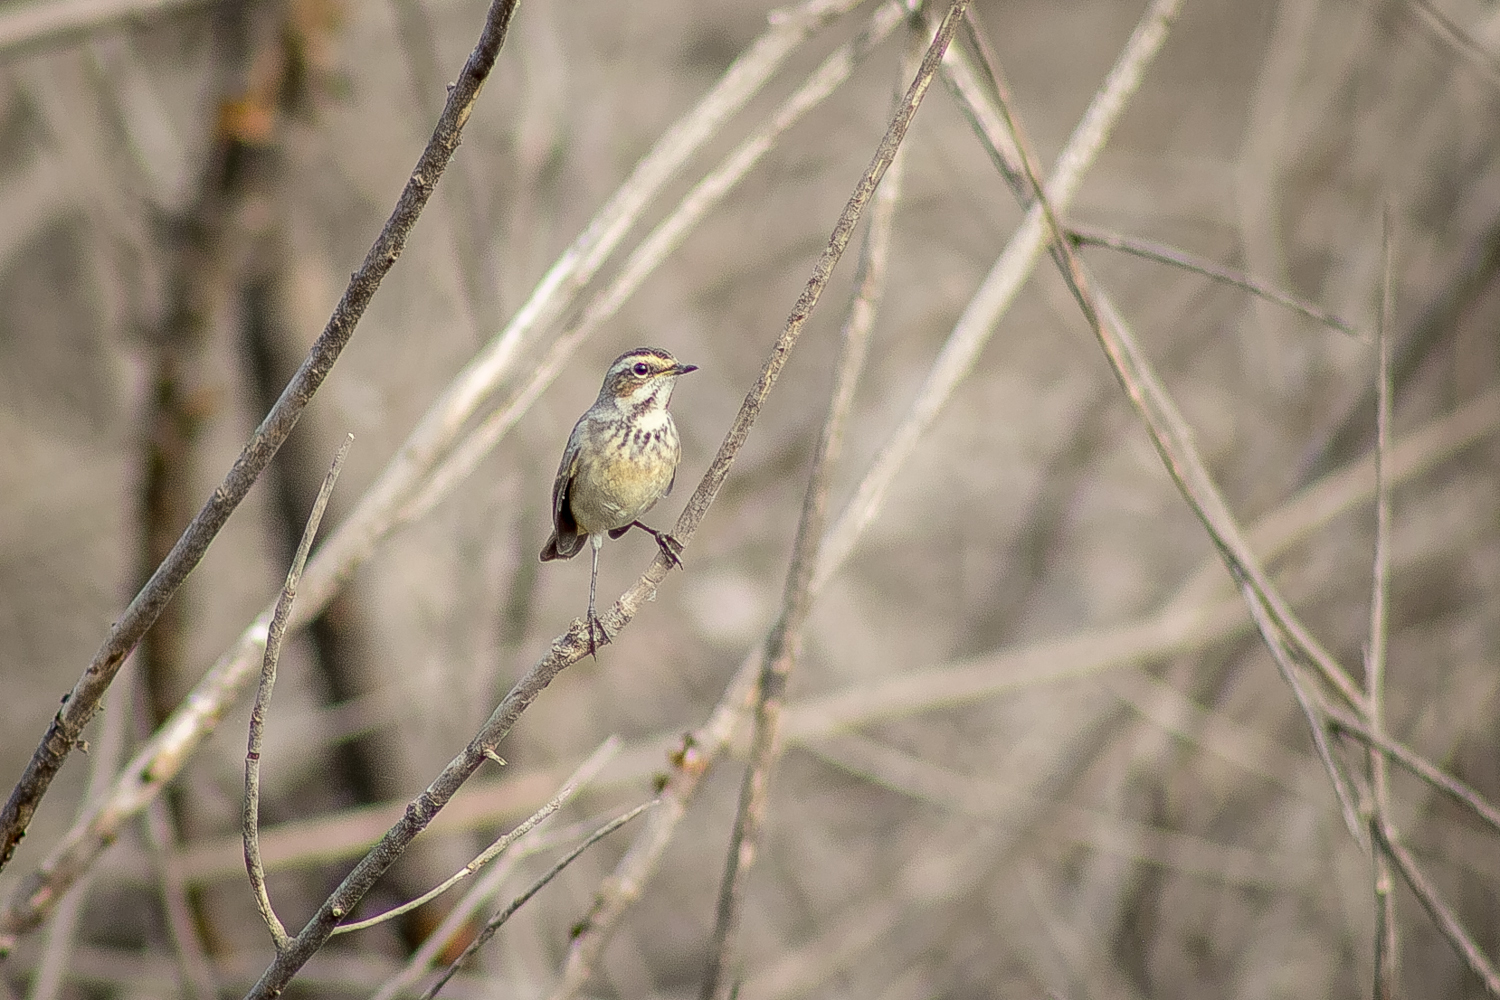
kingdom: Animalia
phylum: Chordata
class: Aves
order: Passeriformes
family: Muscicapidae
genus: Luscinia
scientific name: Luscinia svecica
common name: Bluethroat
